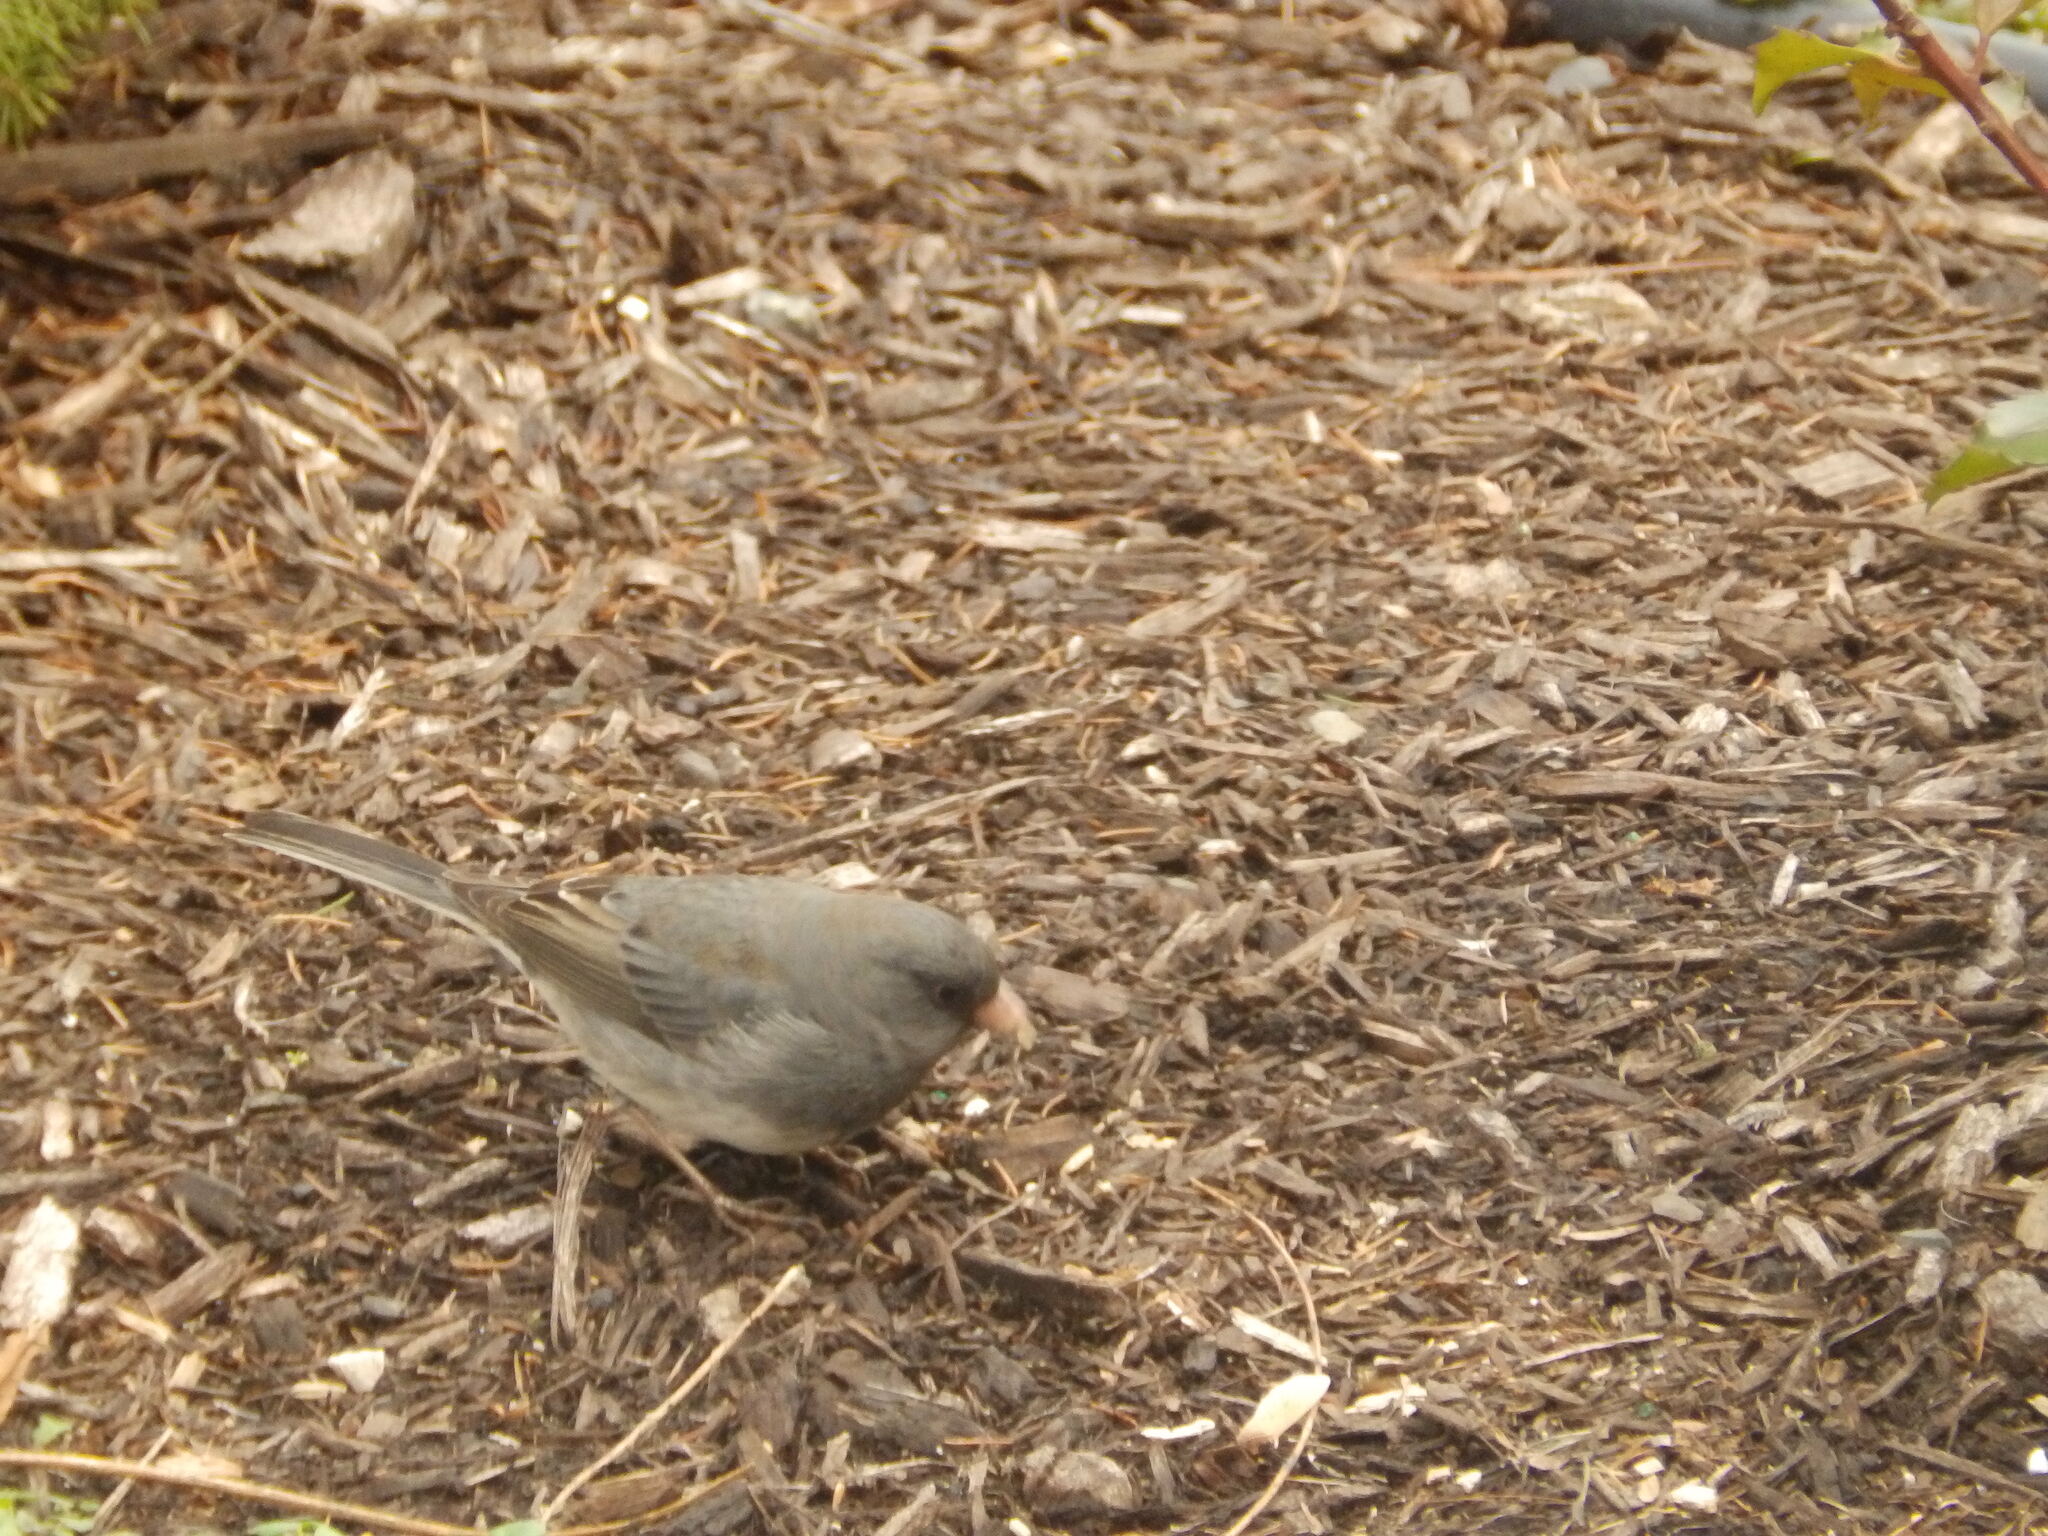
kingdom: Animalia
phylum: Chordata
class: Aves
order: Passeriformes
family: Passerellidae
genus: Junco
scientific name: Junco hyemalis
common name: Dark-eyed junco
